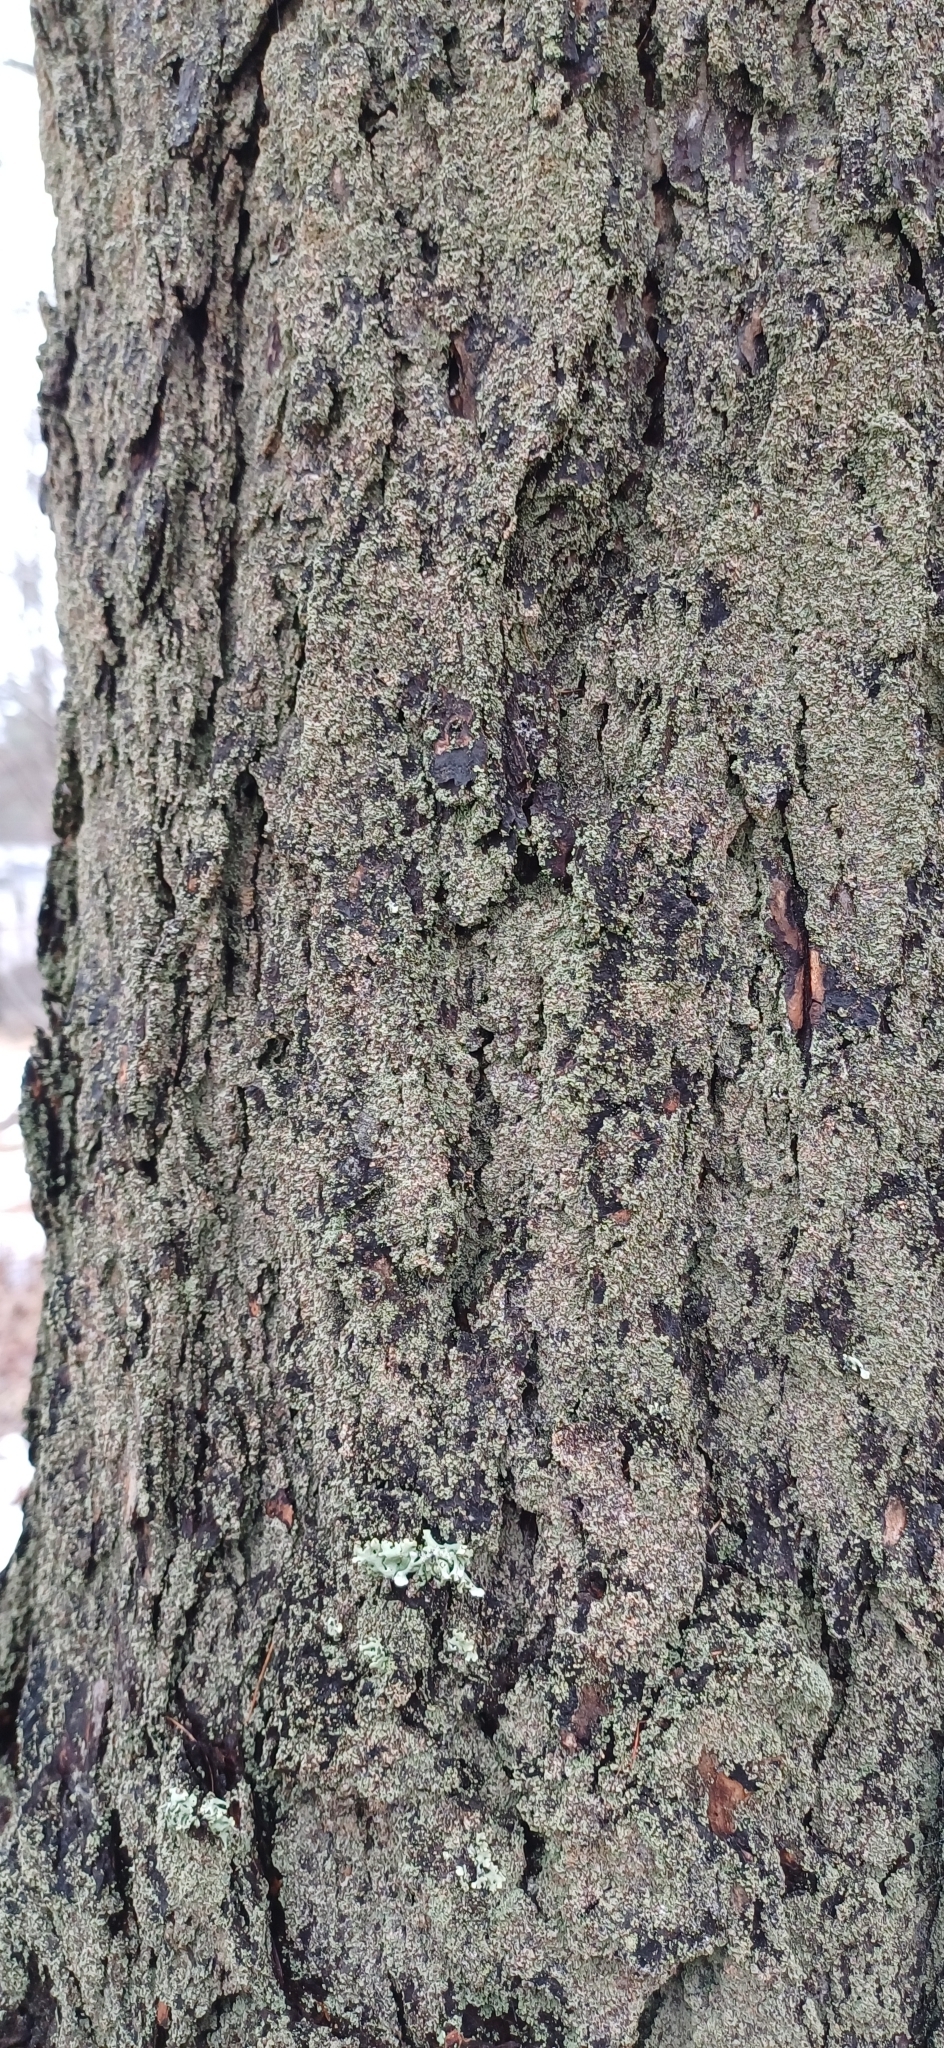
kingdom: Fungi
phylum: Ascomycota
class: Lecanoromycetes
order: Umbilicariales
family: Ophioparmaceae
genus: Hypocenomyce
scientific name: Hypocenomyce scalaris
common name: Common clam lichen
